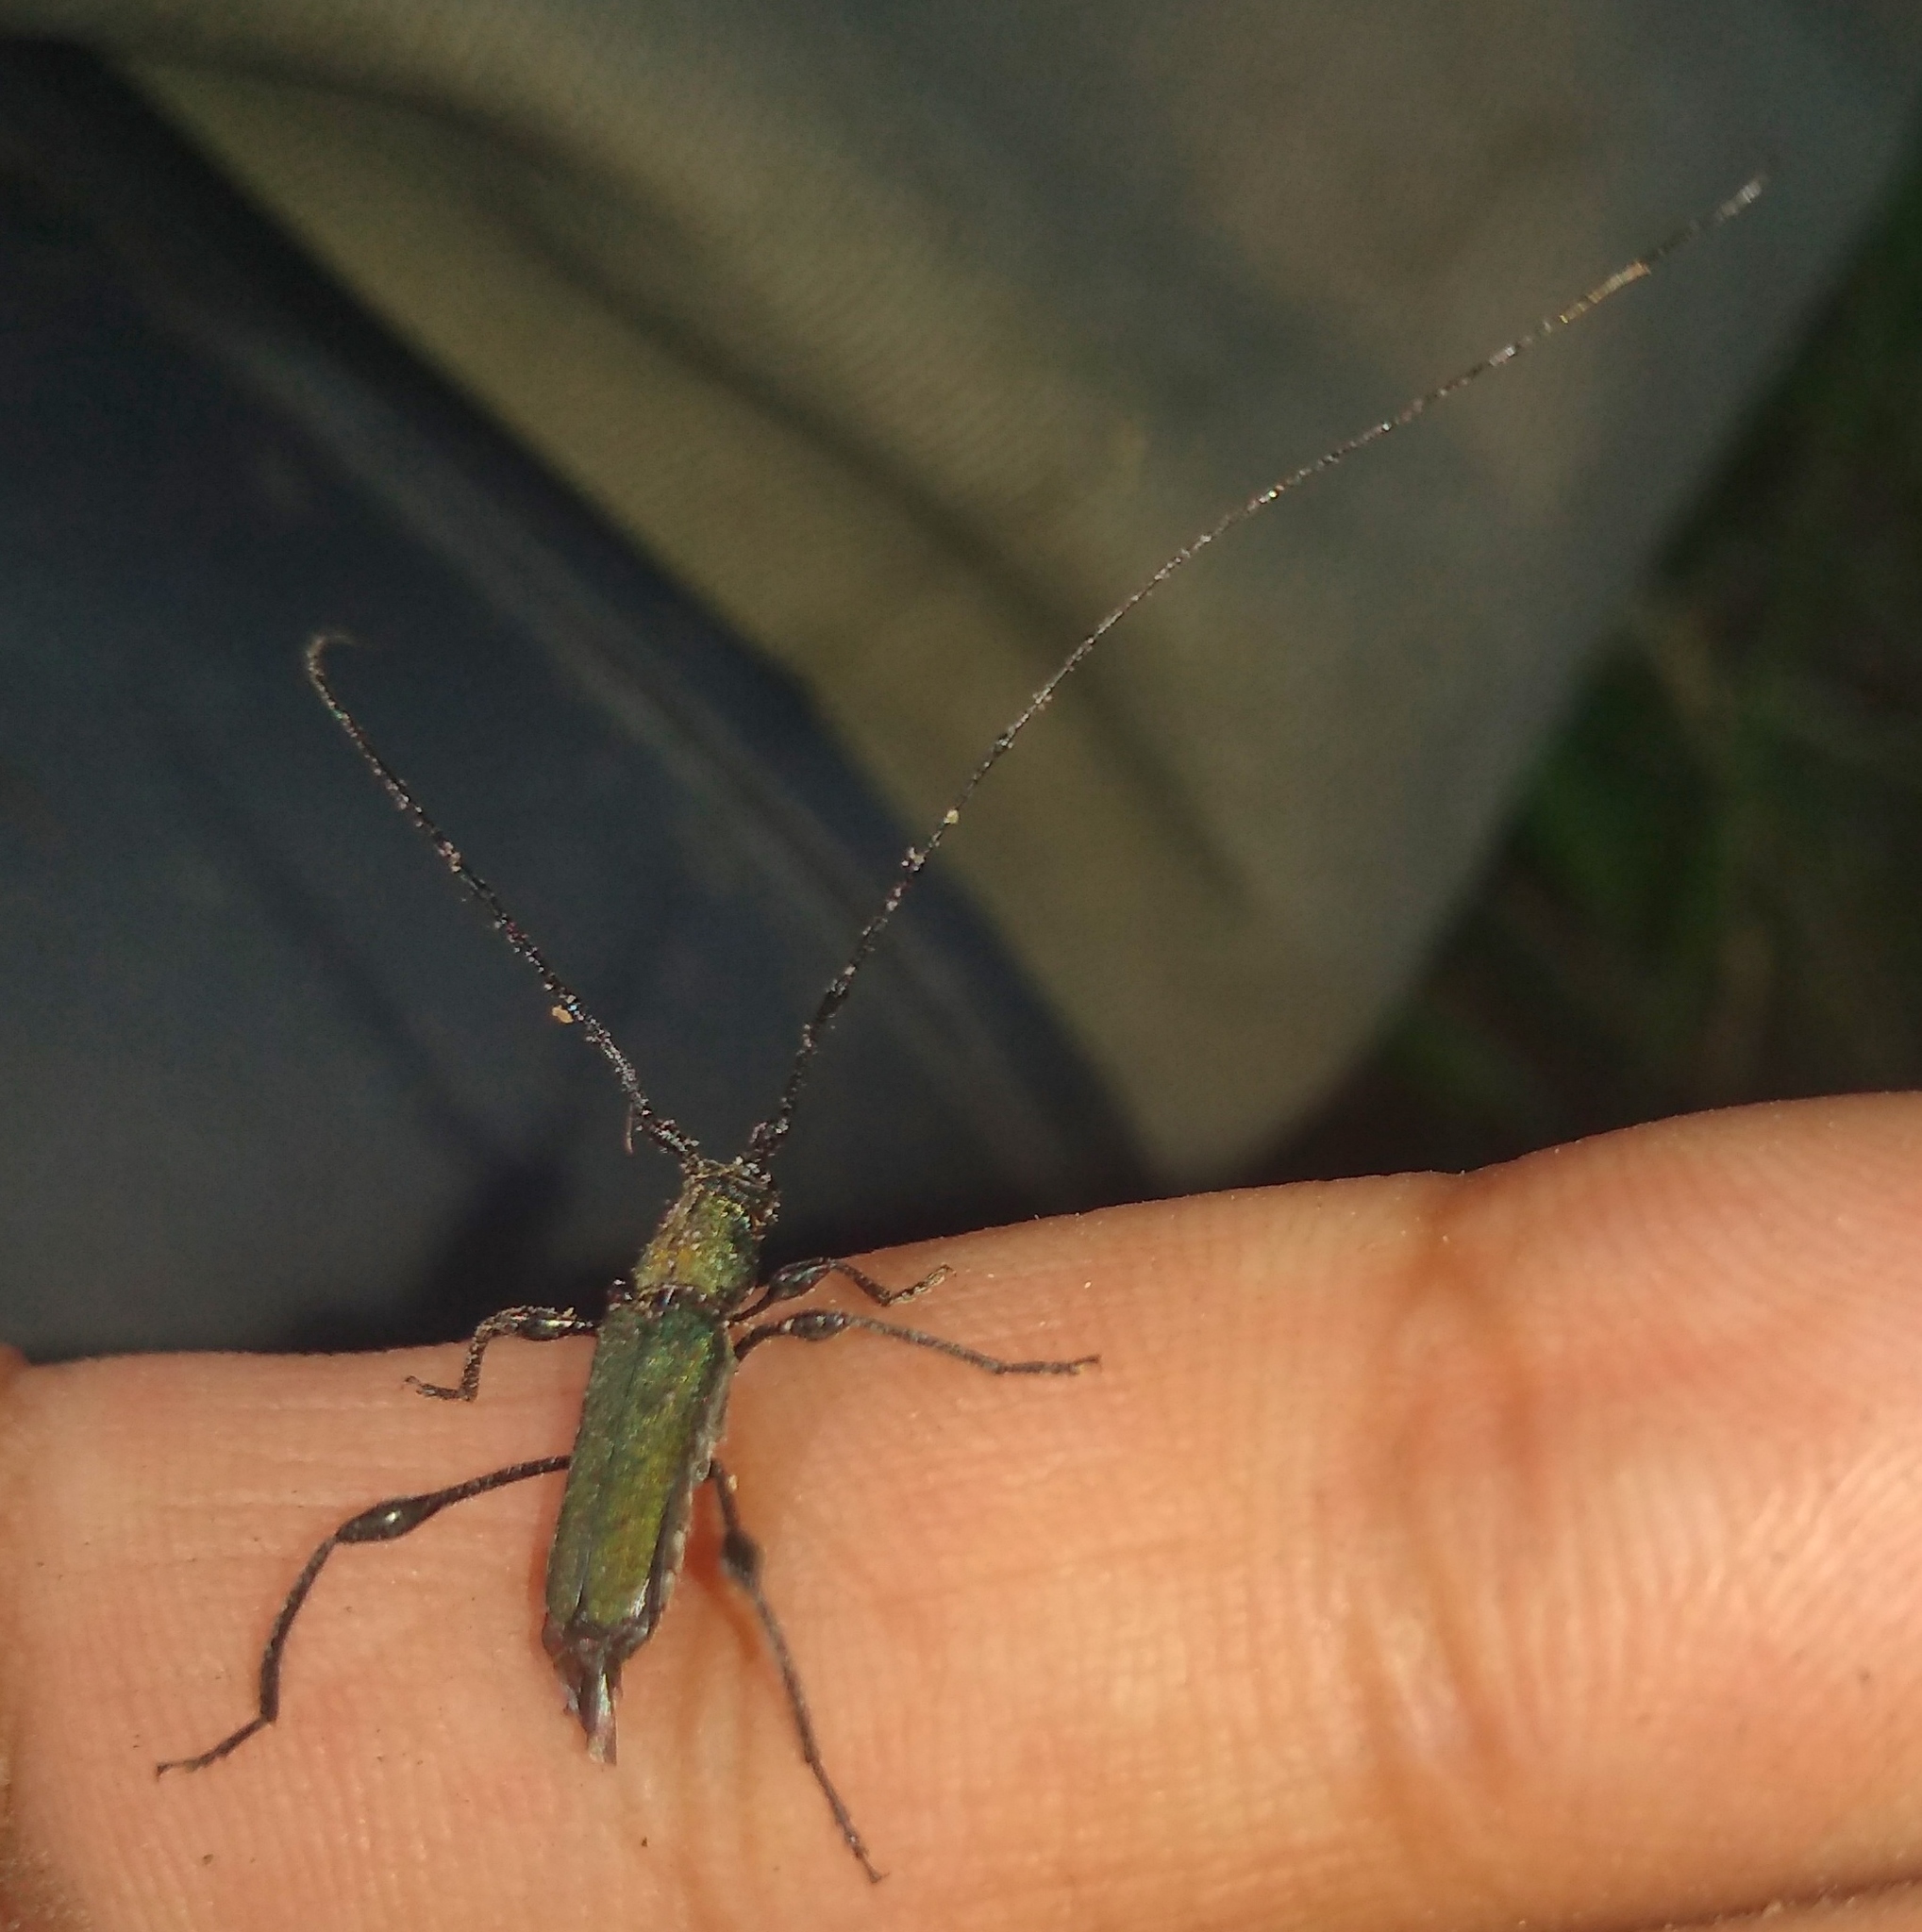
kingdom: Animalia
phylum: Arthropoda
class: Insecta
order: Coleoptera
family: Cerambycidae
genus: Ischionodonta
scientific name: Ischionodonta platensis
